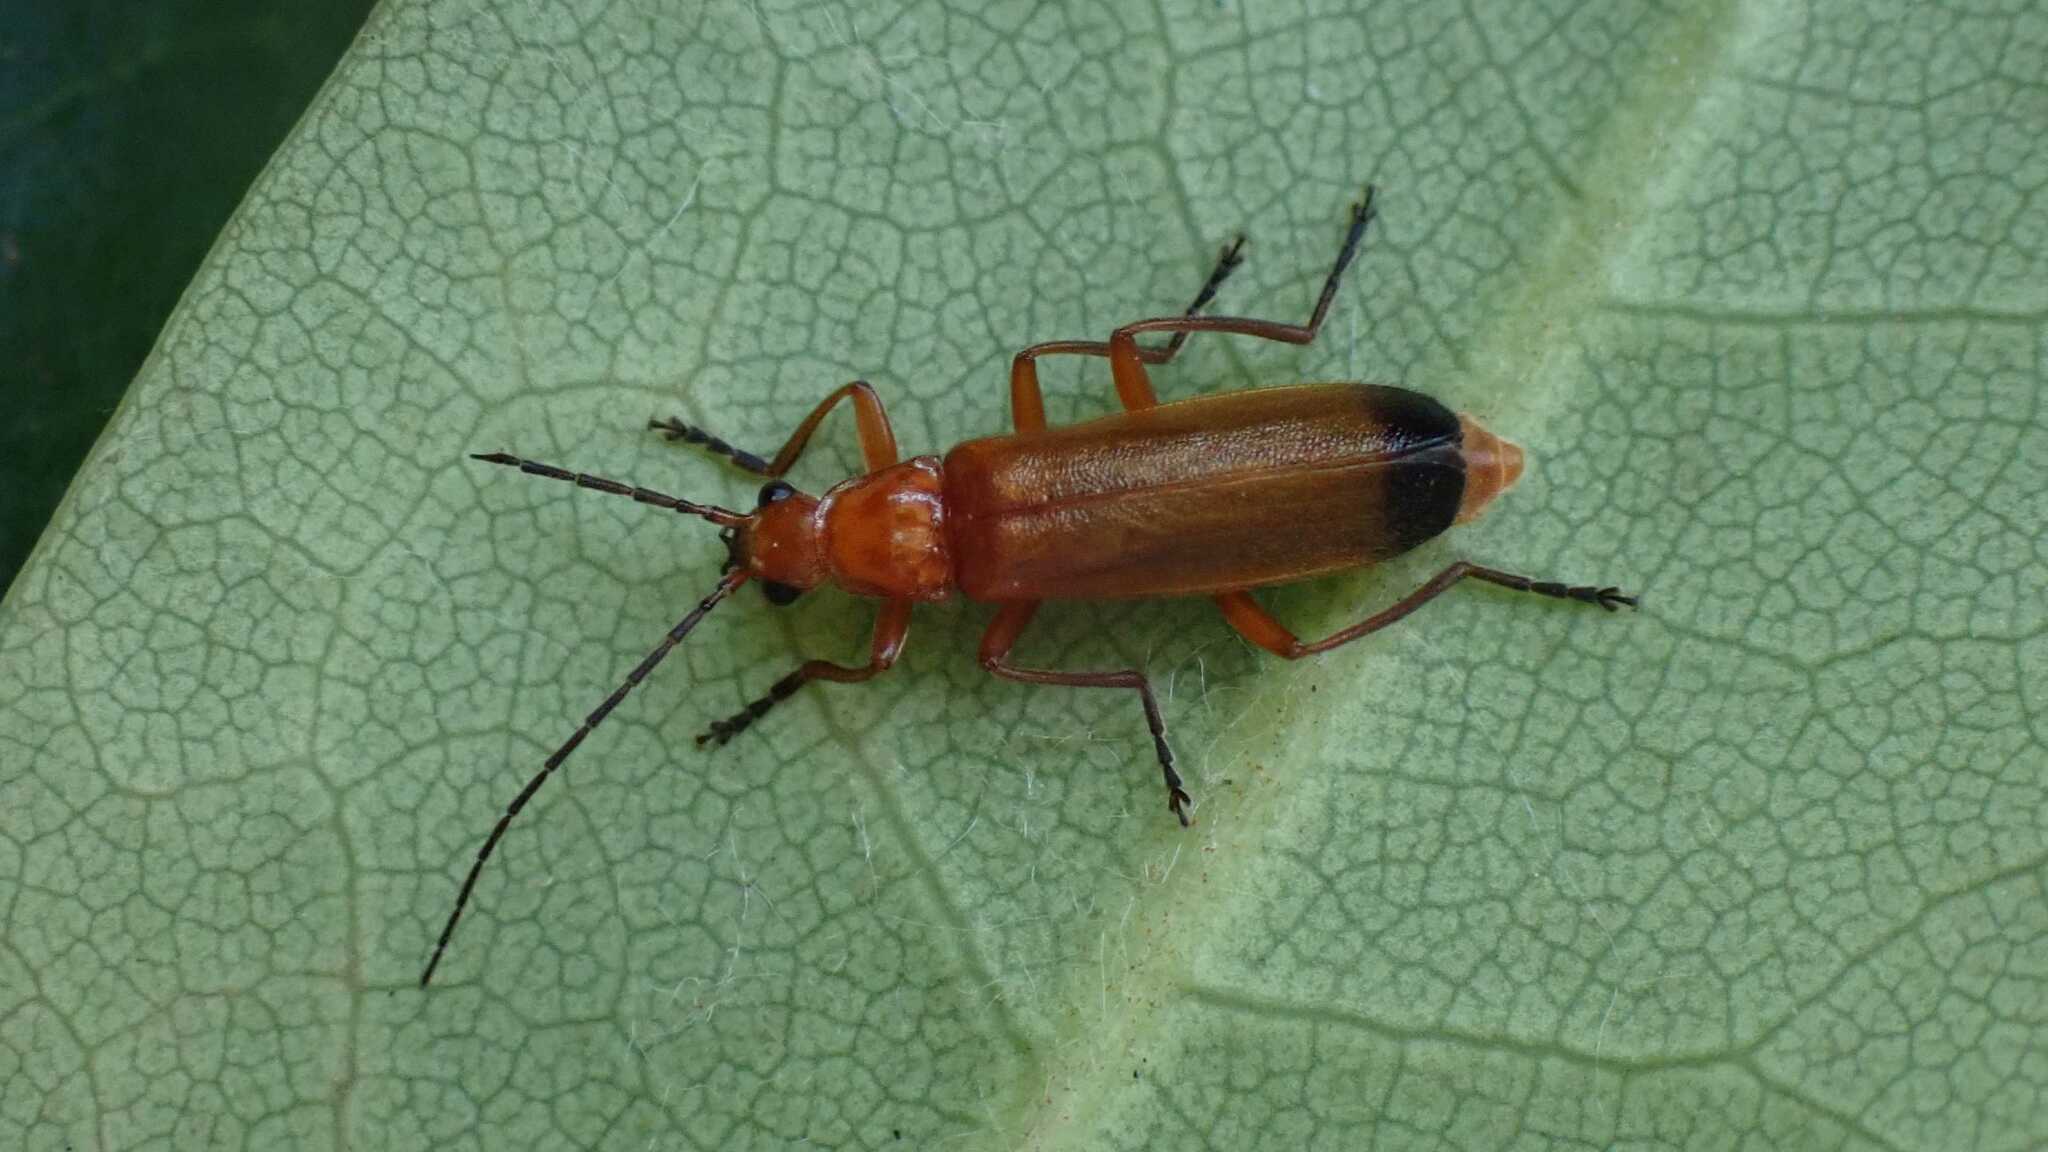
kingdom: Animalia
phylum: Arthropoda
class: Insecta
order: Coleoptera
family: Cantharidae
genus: Rhagonycha
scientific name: Rhagonycha fulva
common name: Common red soldier beetle
